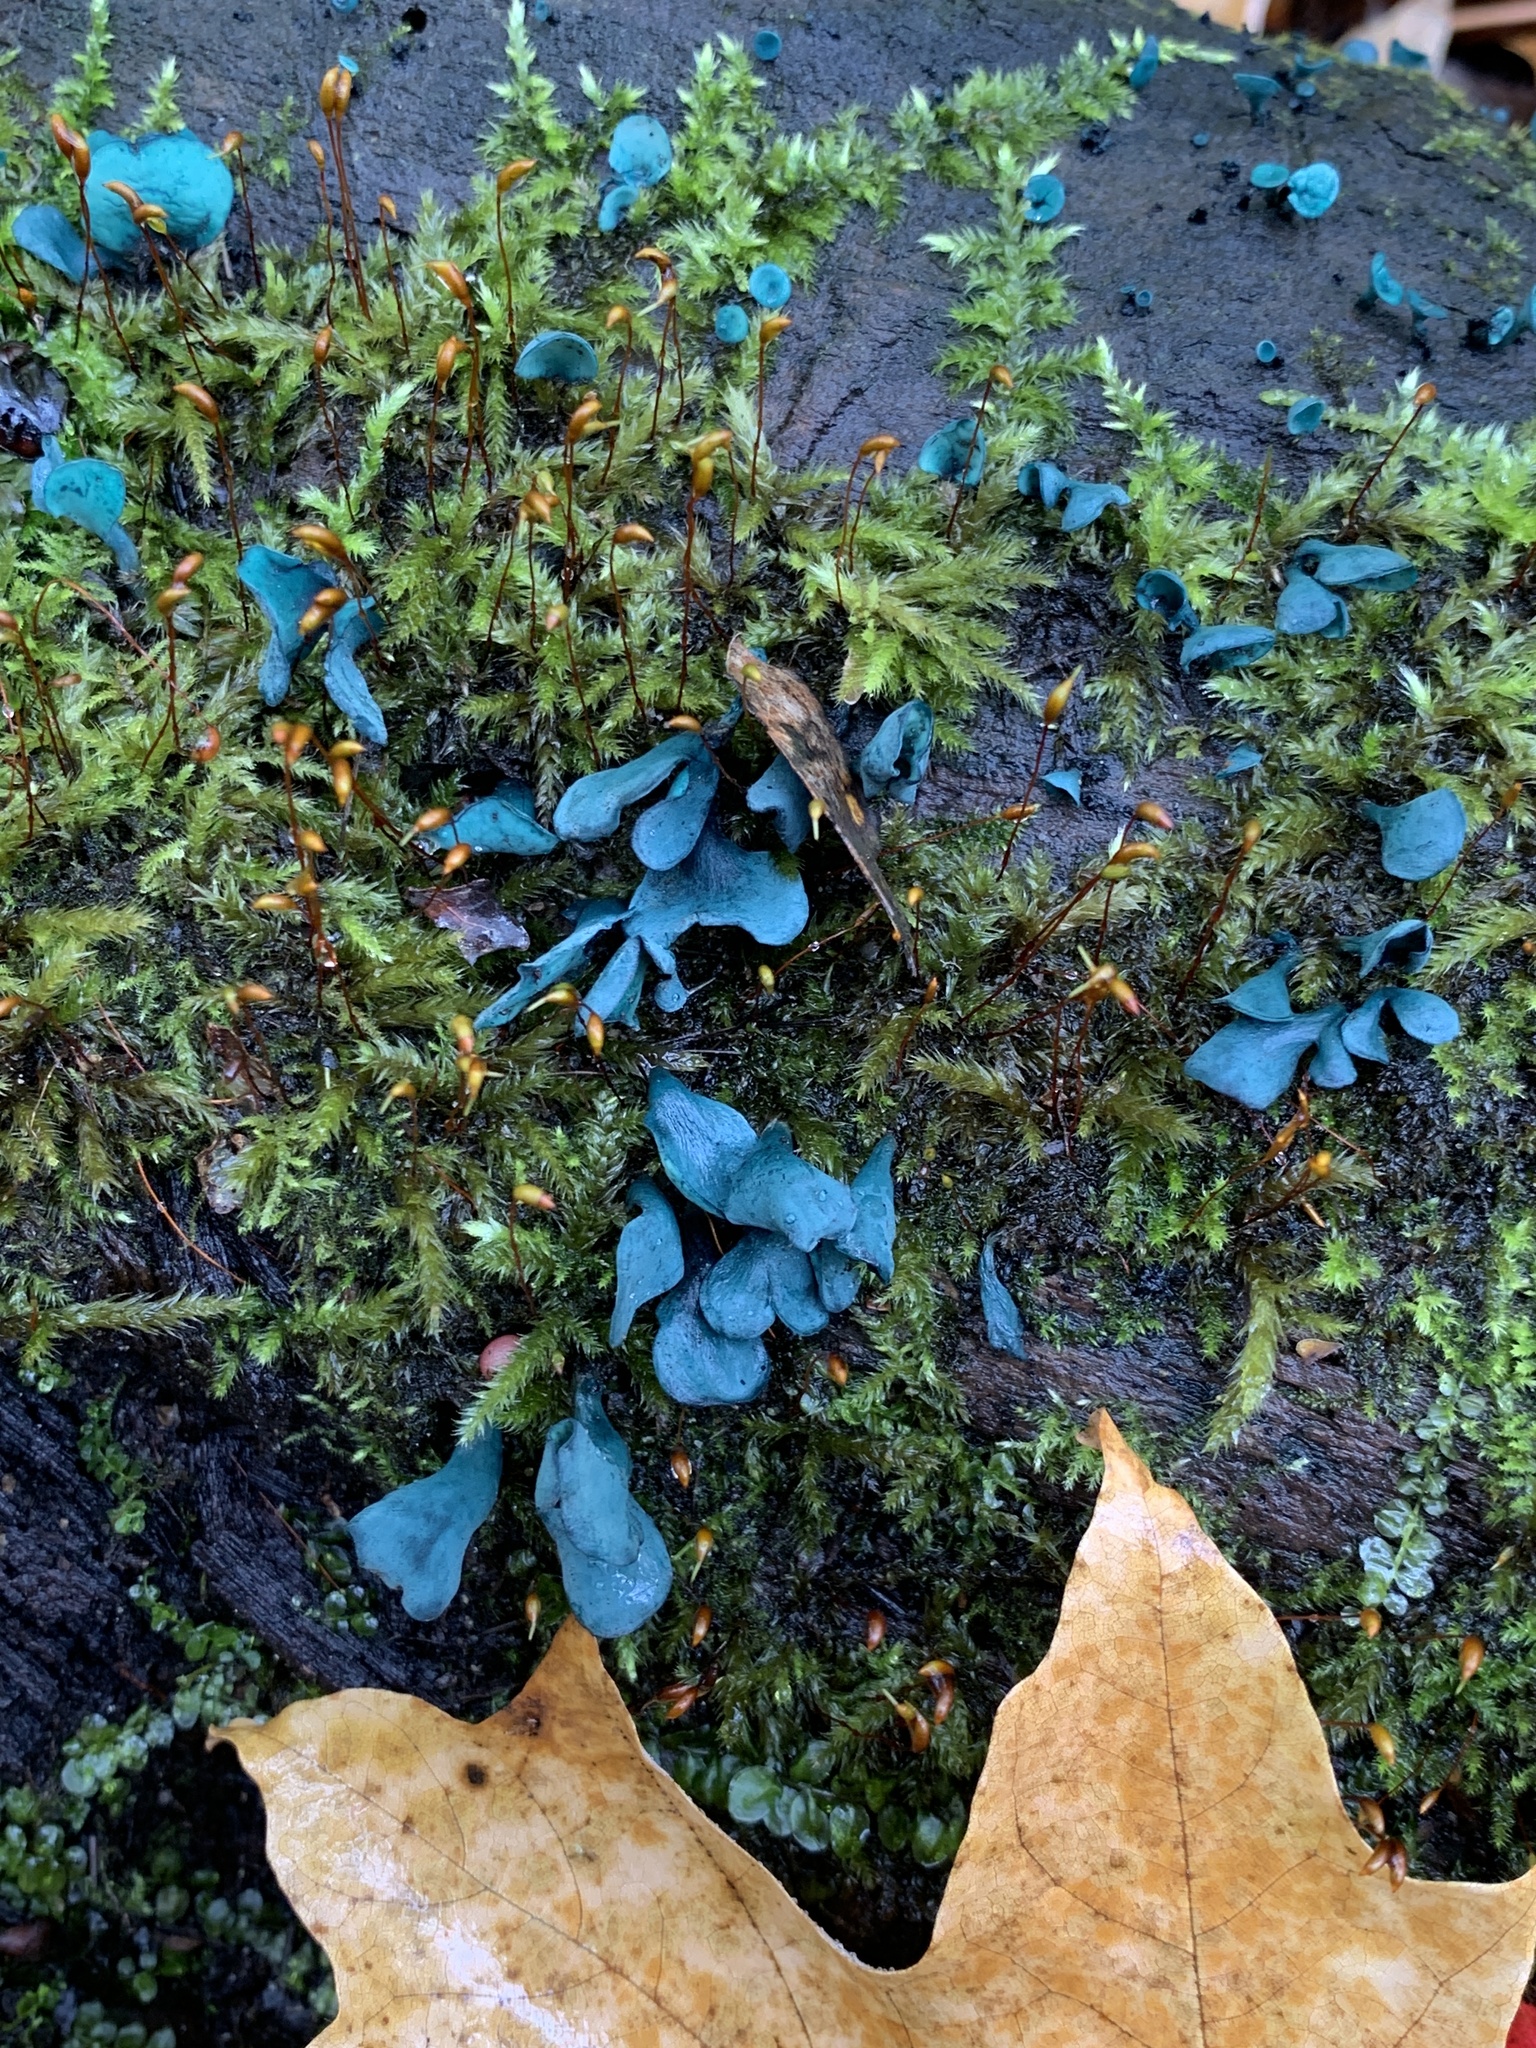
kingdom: Fungi
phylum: Ascomycota
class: Leotiomycetes
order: Helotiales
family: Chlorociboriaceae
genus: Chlorociboria
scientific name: Chlorociboria aeruginascens
